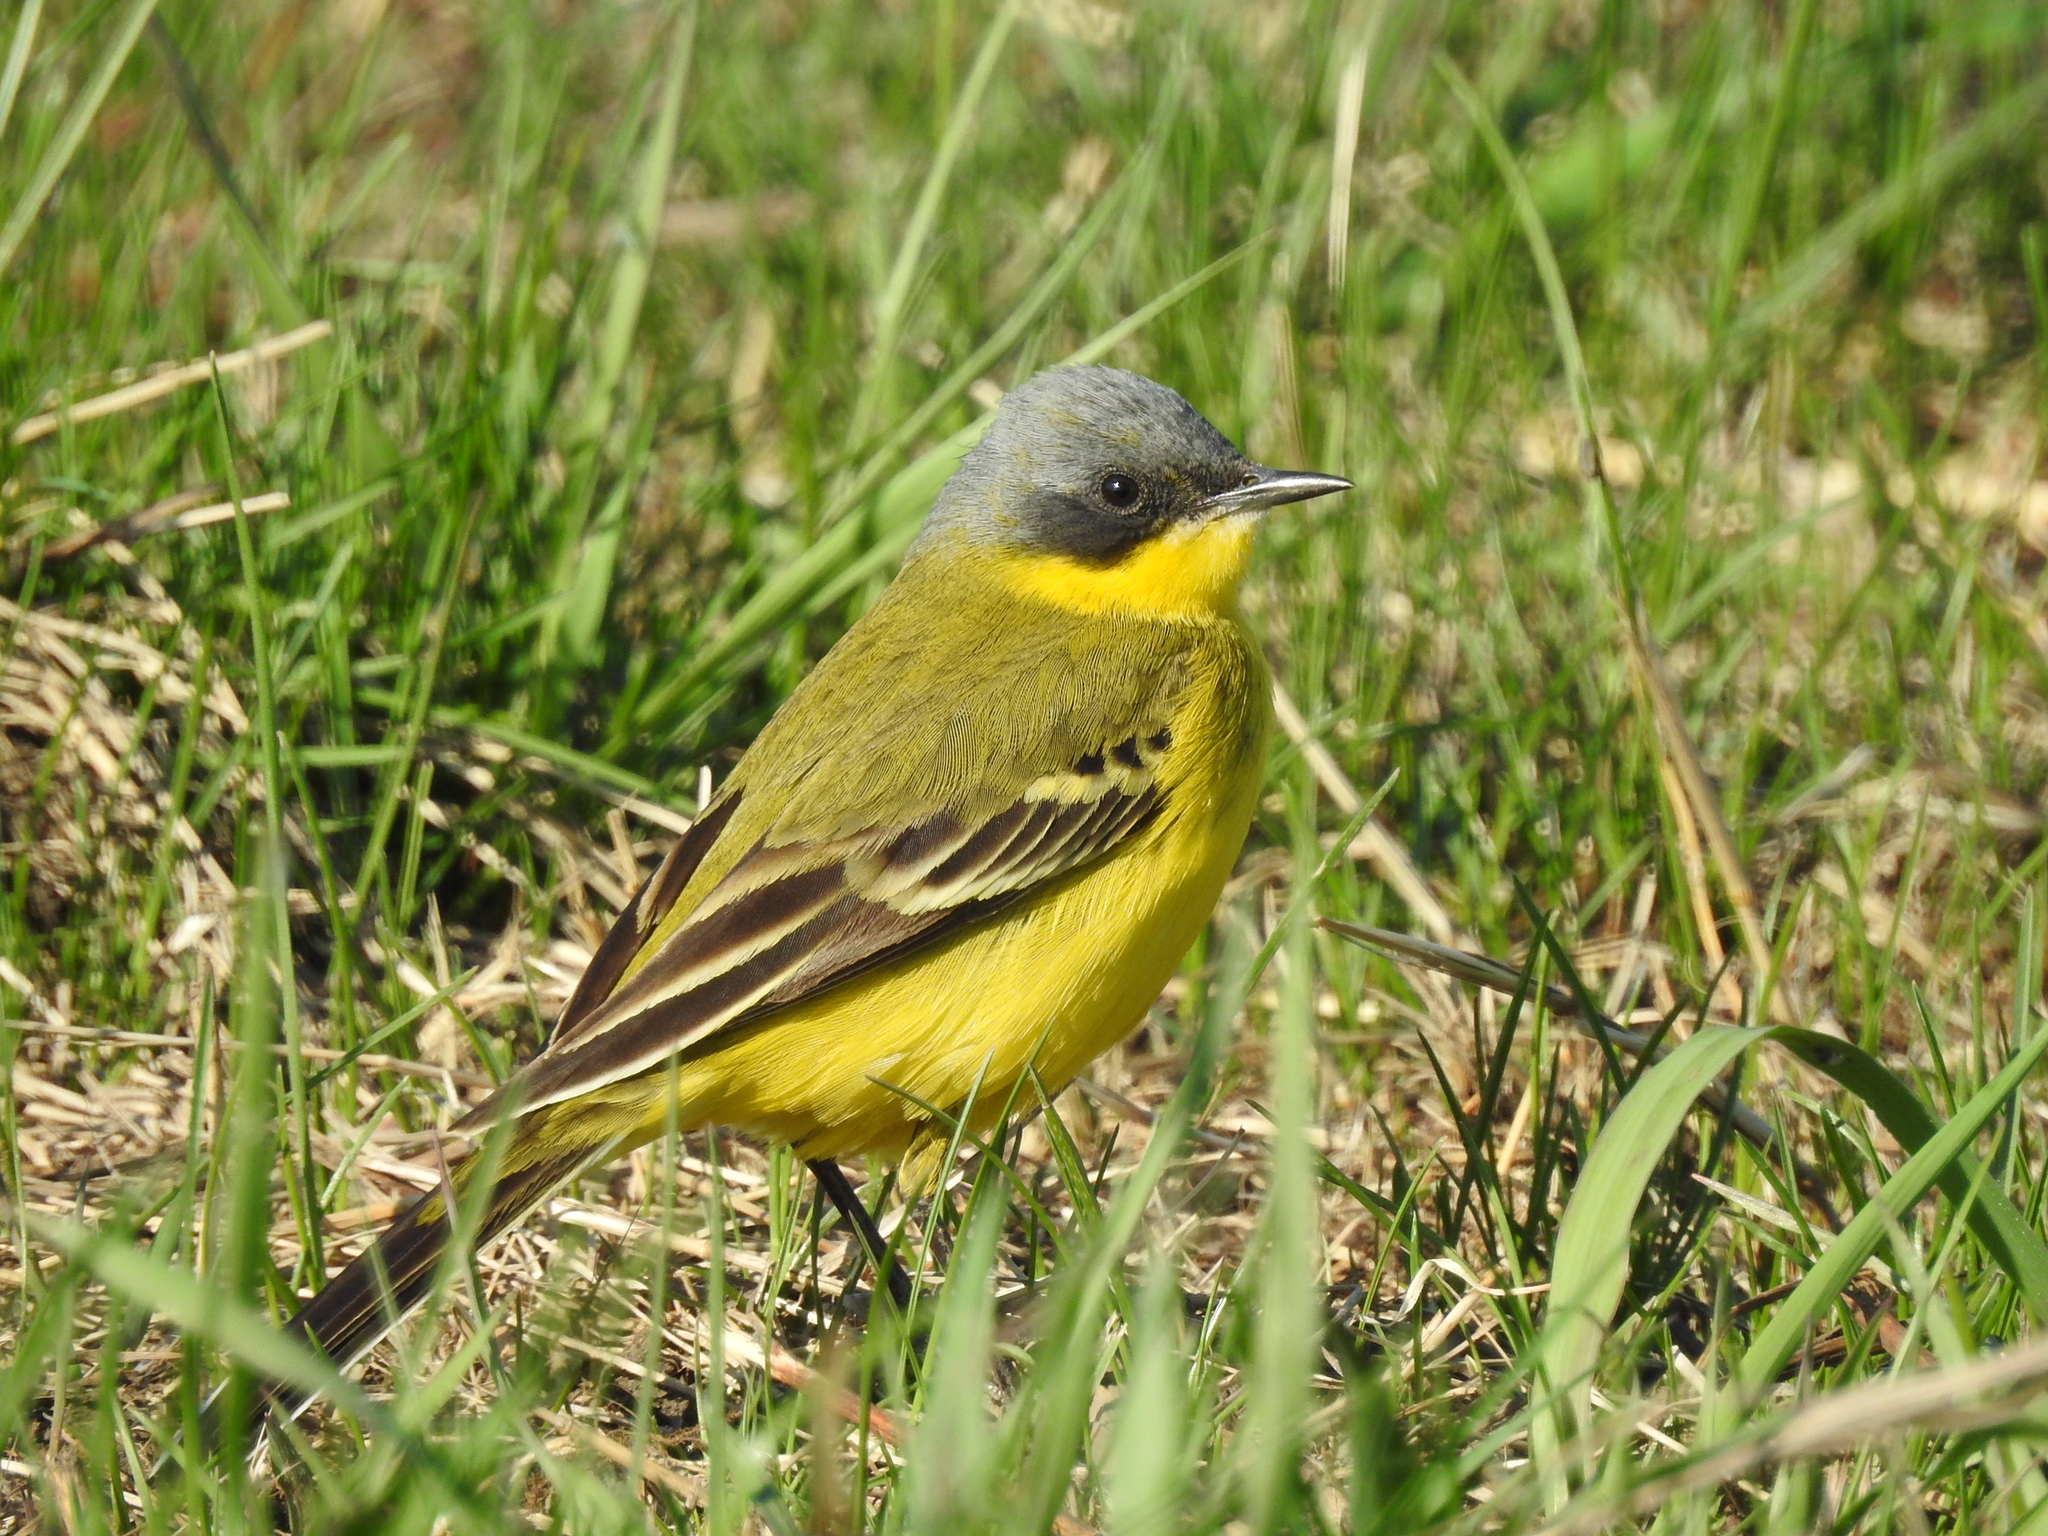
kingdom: Animalia
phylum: Chordata
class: Aves
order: Passeriformes
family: Motacillidae
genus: Motacilla
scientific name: Motacilla tschutschensis
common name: Eastern yellow wagtail
